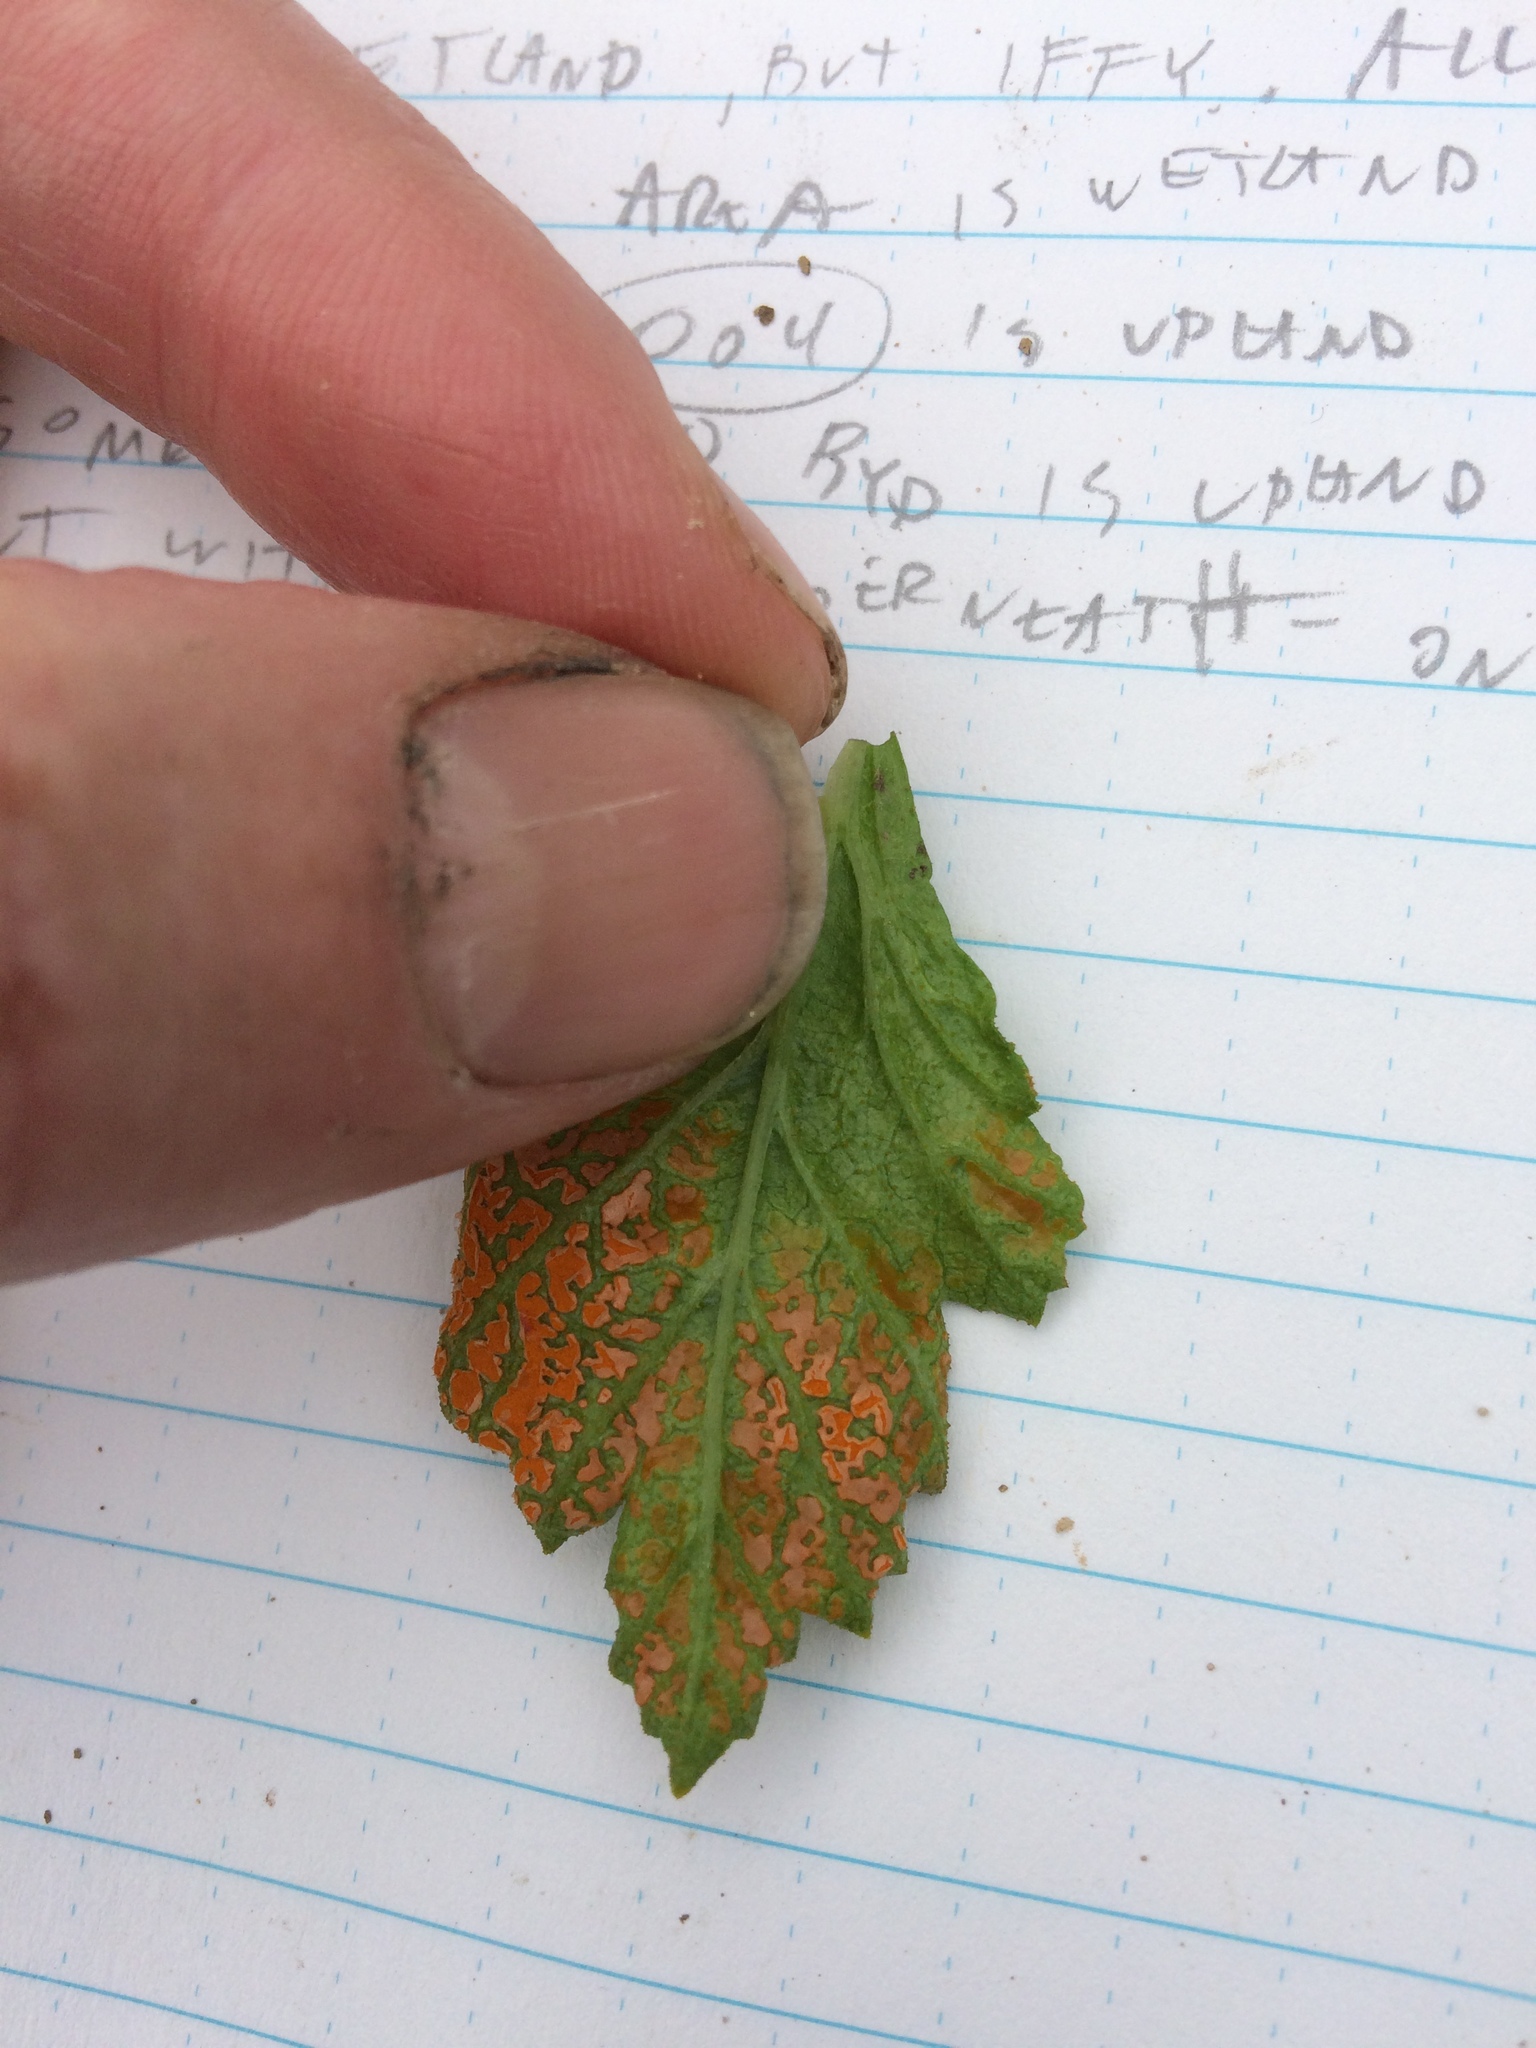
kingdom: Fungi
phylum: Basidiomycota
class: Pucciniomycetes
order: Pucciniales
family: Phragmidiaceae
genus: Arthuriomyces
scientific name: Arthuriomyces peckianus
